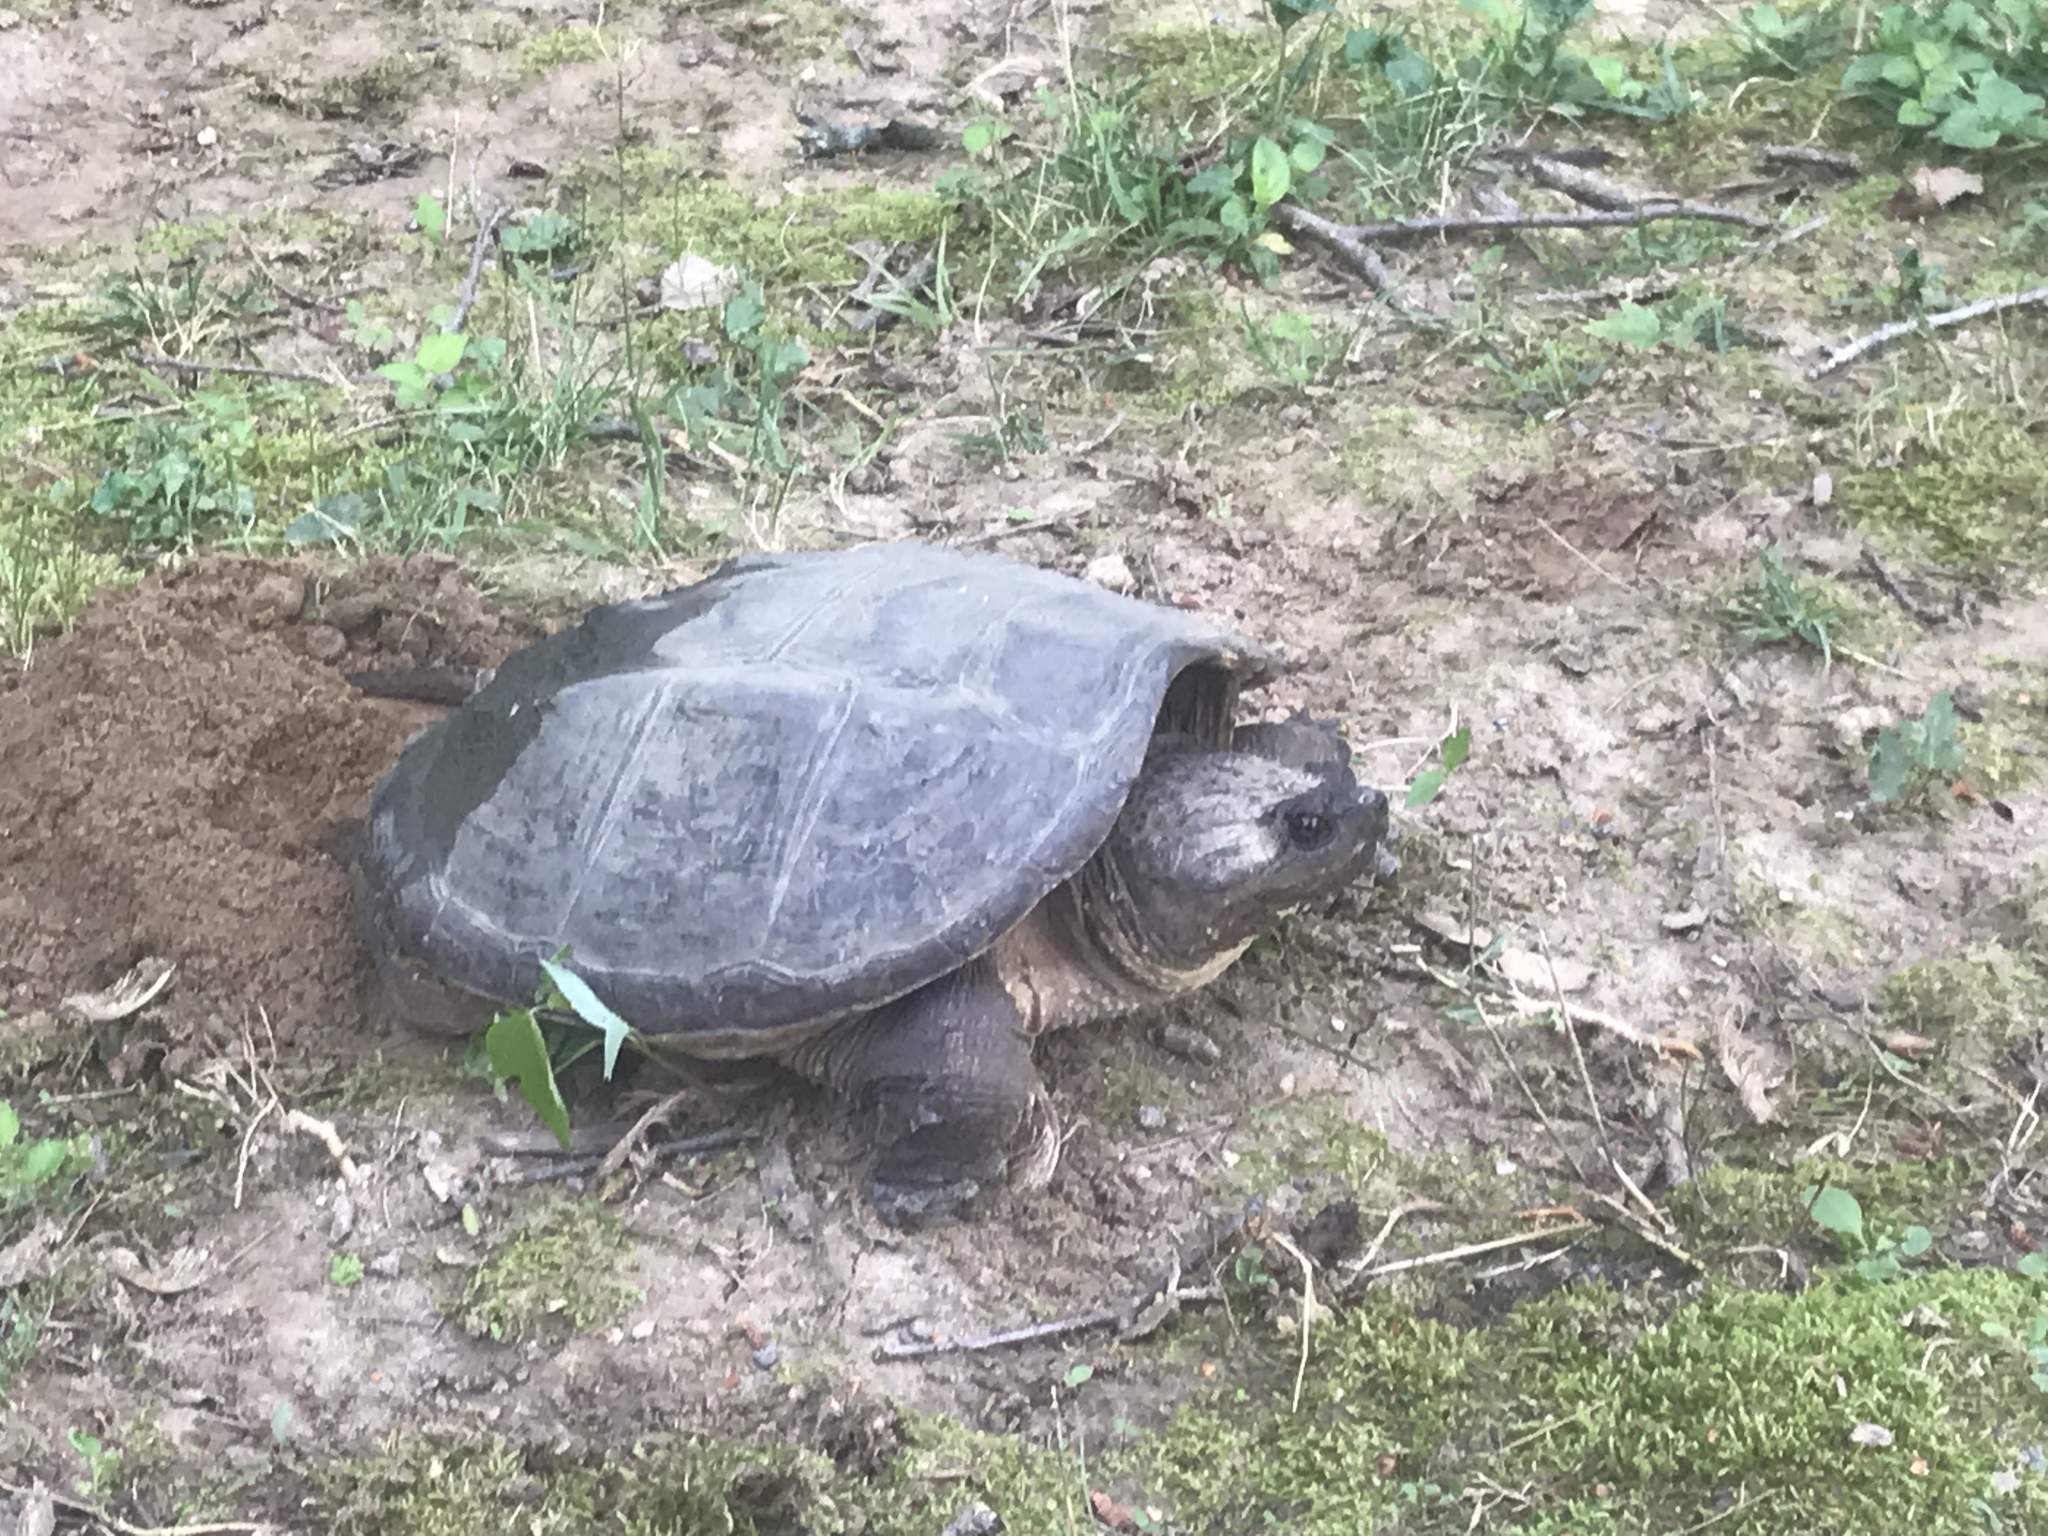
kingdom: Animalia
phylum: Chordata
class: Testudines
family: Chelydridae
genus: Chelydra
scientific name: Chelydra serpentina
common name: Common snapping turtle
